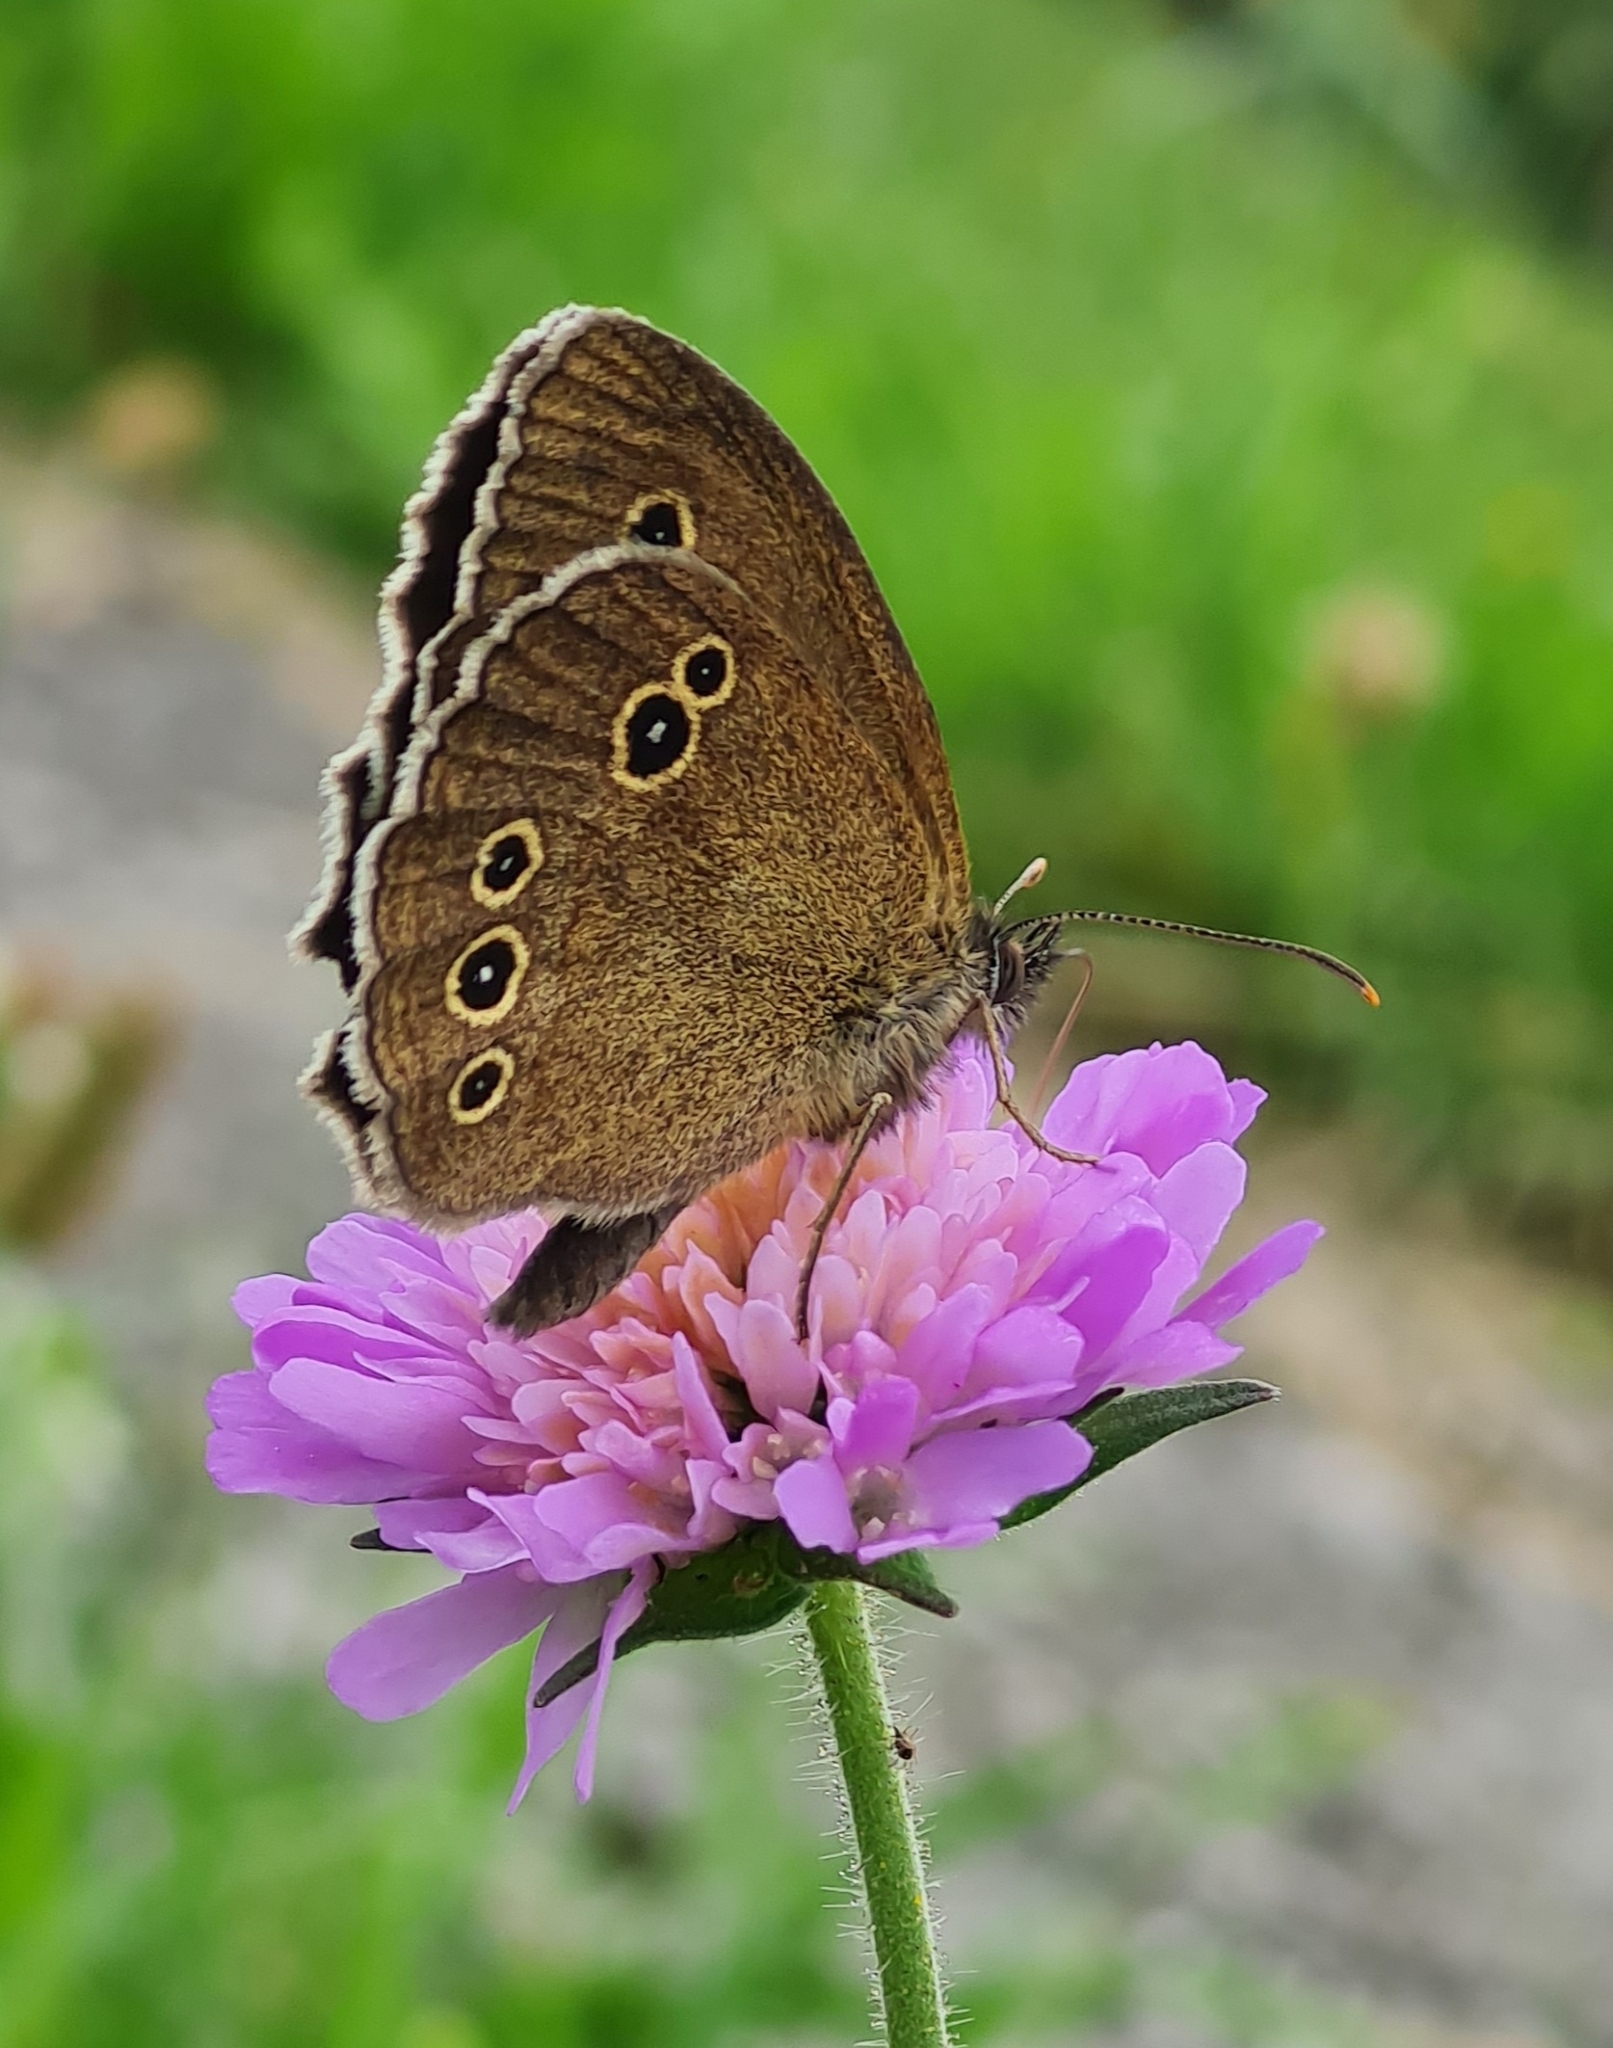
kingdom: Animalia
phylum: Arthropoda
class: Insecta
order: Lepidoptera
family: Nymphalidae
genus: Aphantopus
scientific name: Aphantopus hyperantus
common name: Ringlet
